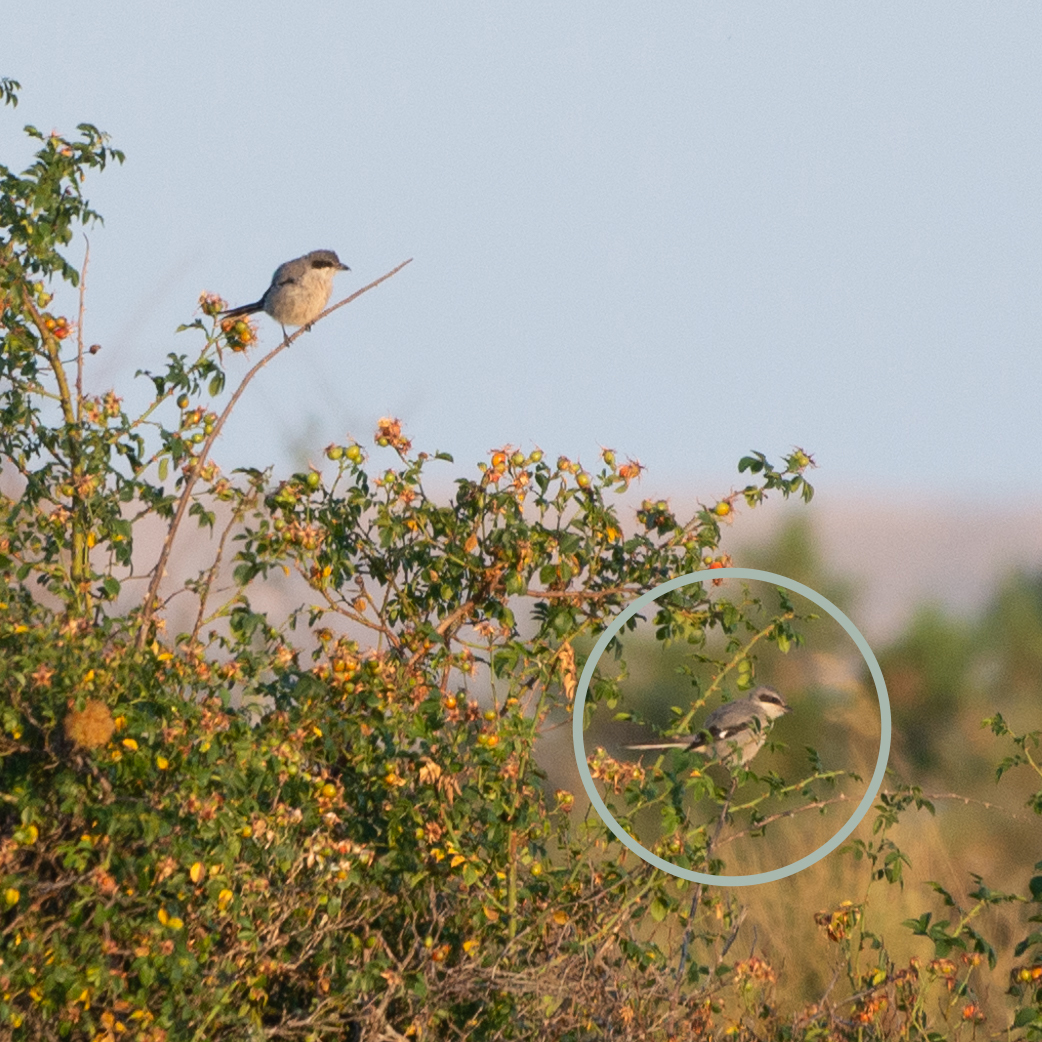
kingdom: Animalia
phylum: Chordata
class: Aves
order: Passeriformes
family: Laniidae
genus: Lanius
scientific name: Lanius meridionalis
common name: Iberian grey shrike
